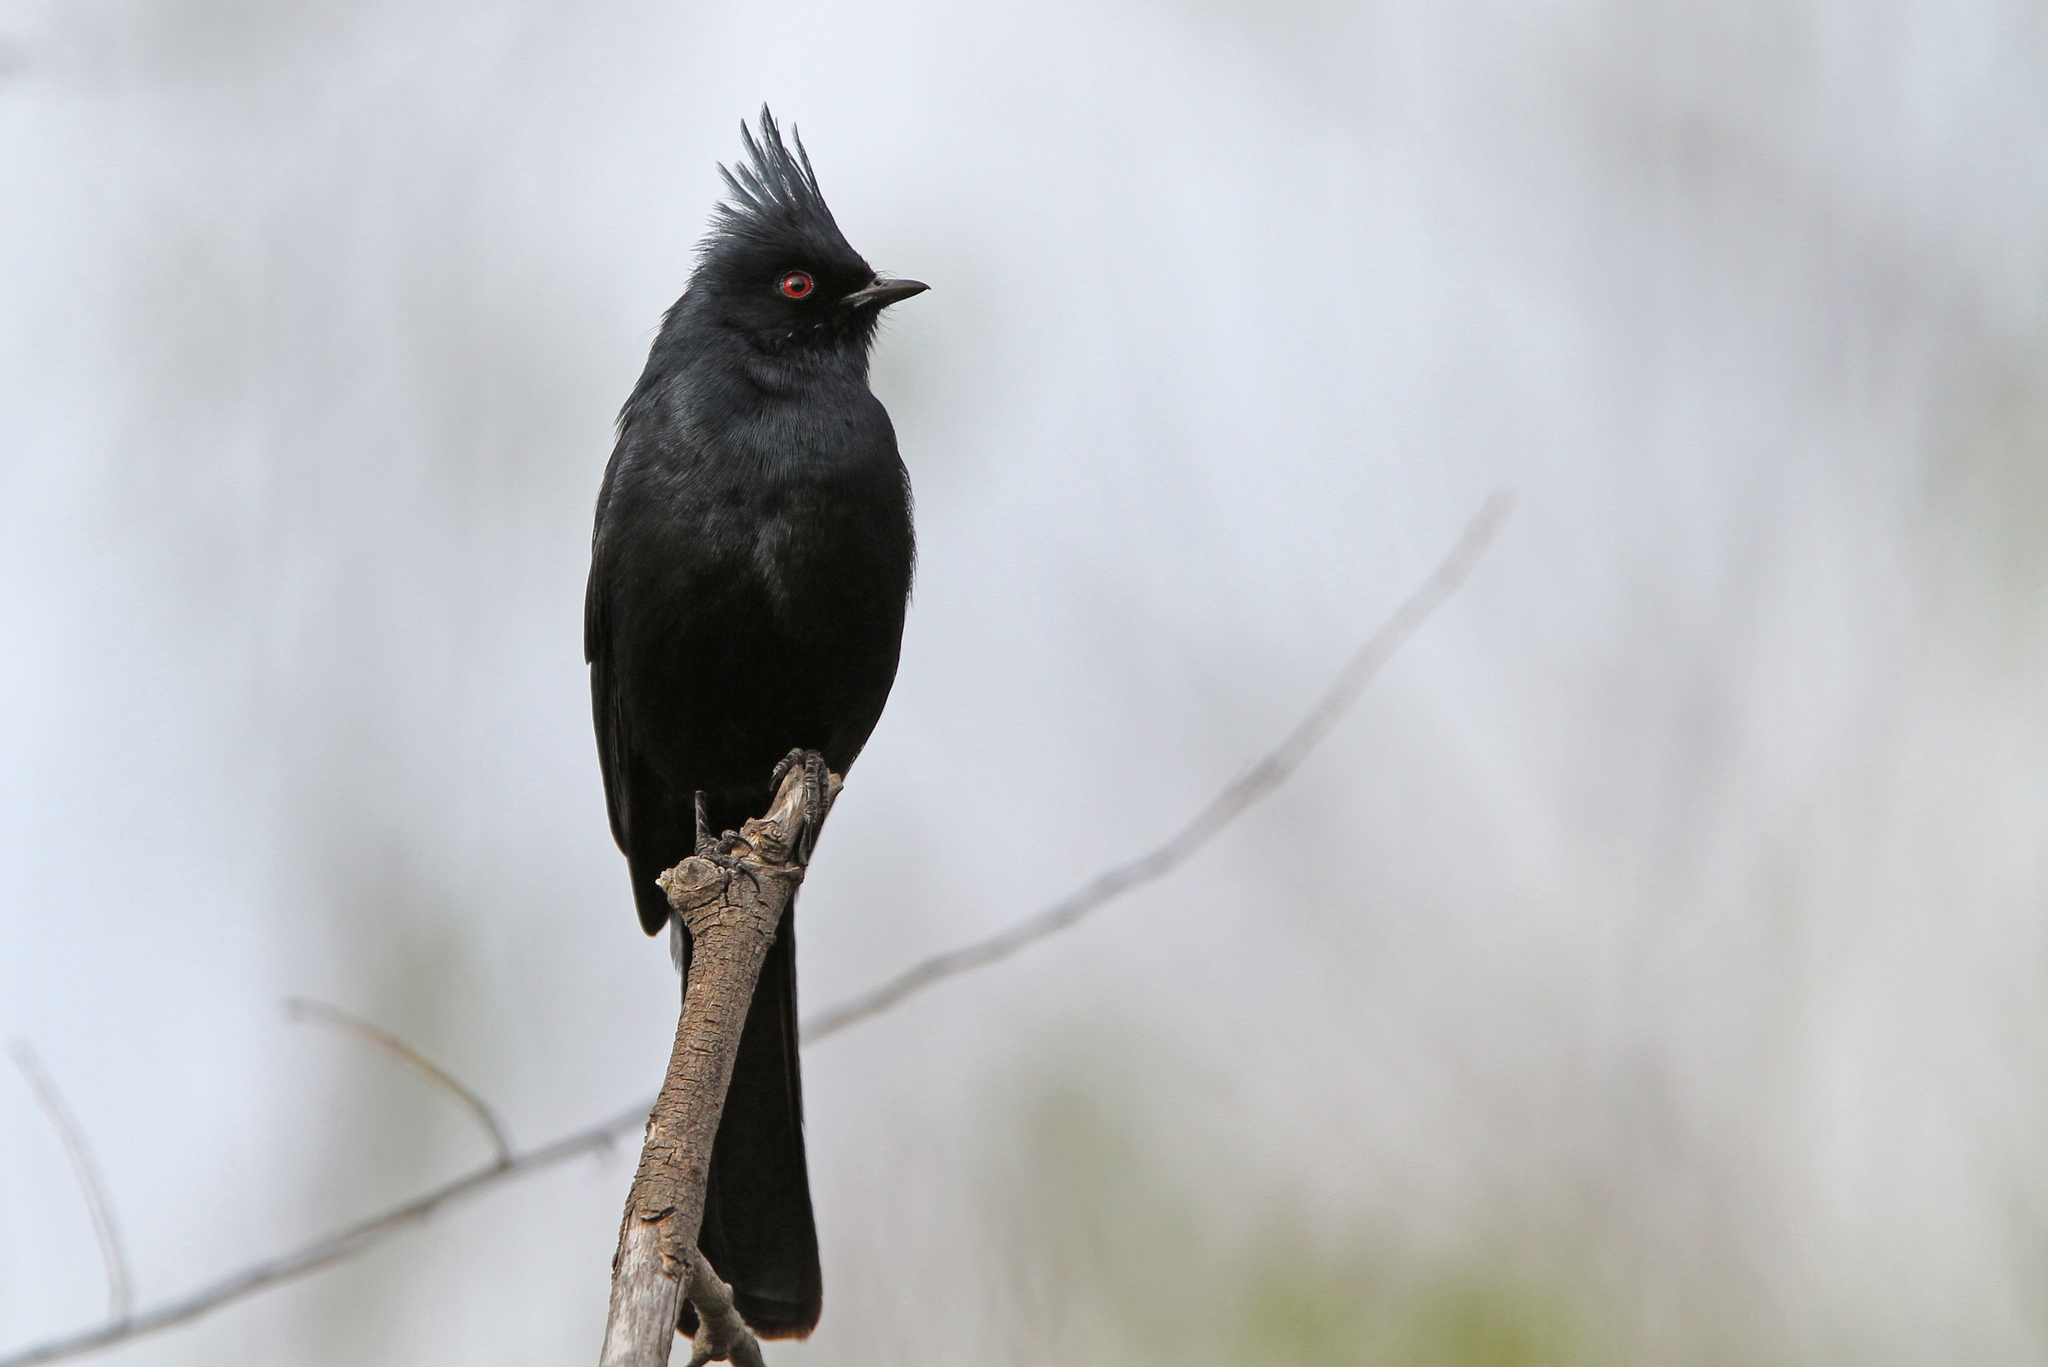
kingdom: Animalia
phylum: Chordata
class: Aves
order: Passeriformes
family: Ptilogonatidae
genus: Phainopepla
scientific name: Phainopepla nitens
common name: Phainopepla
